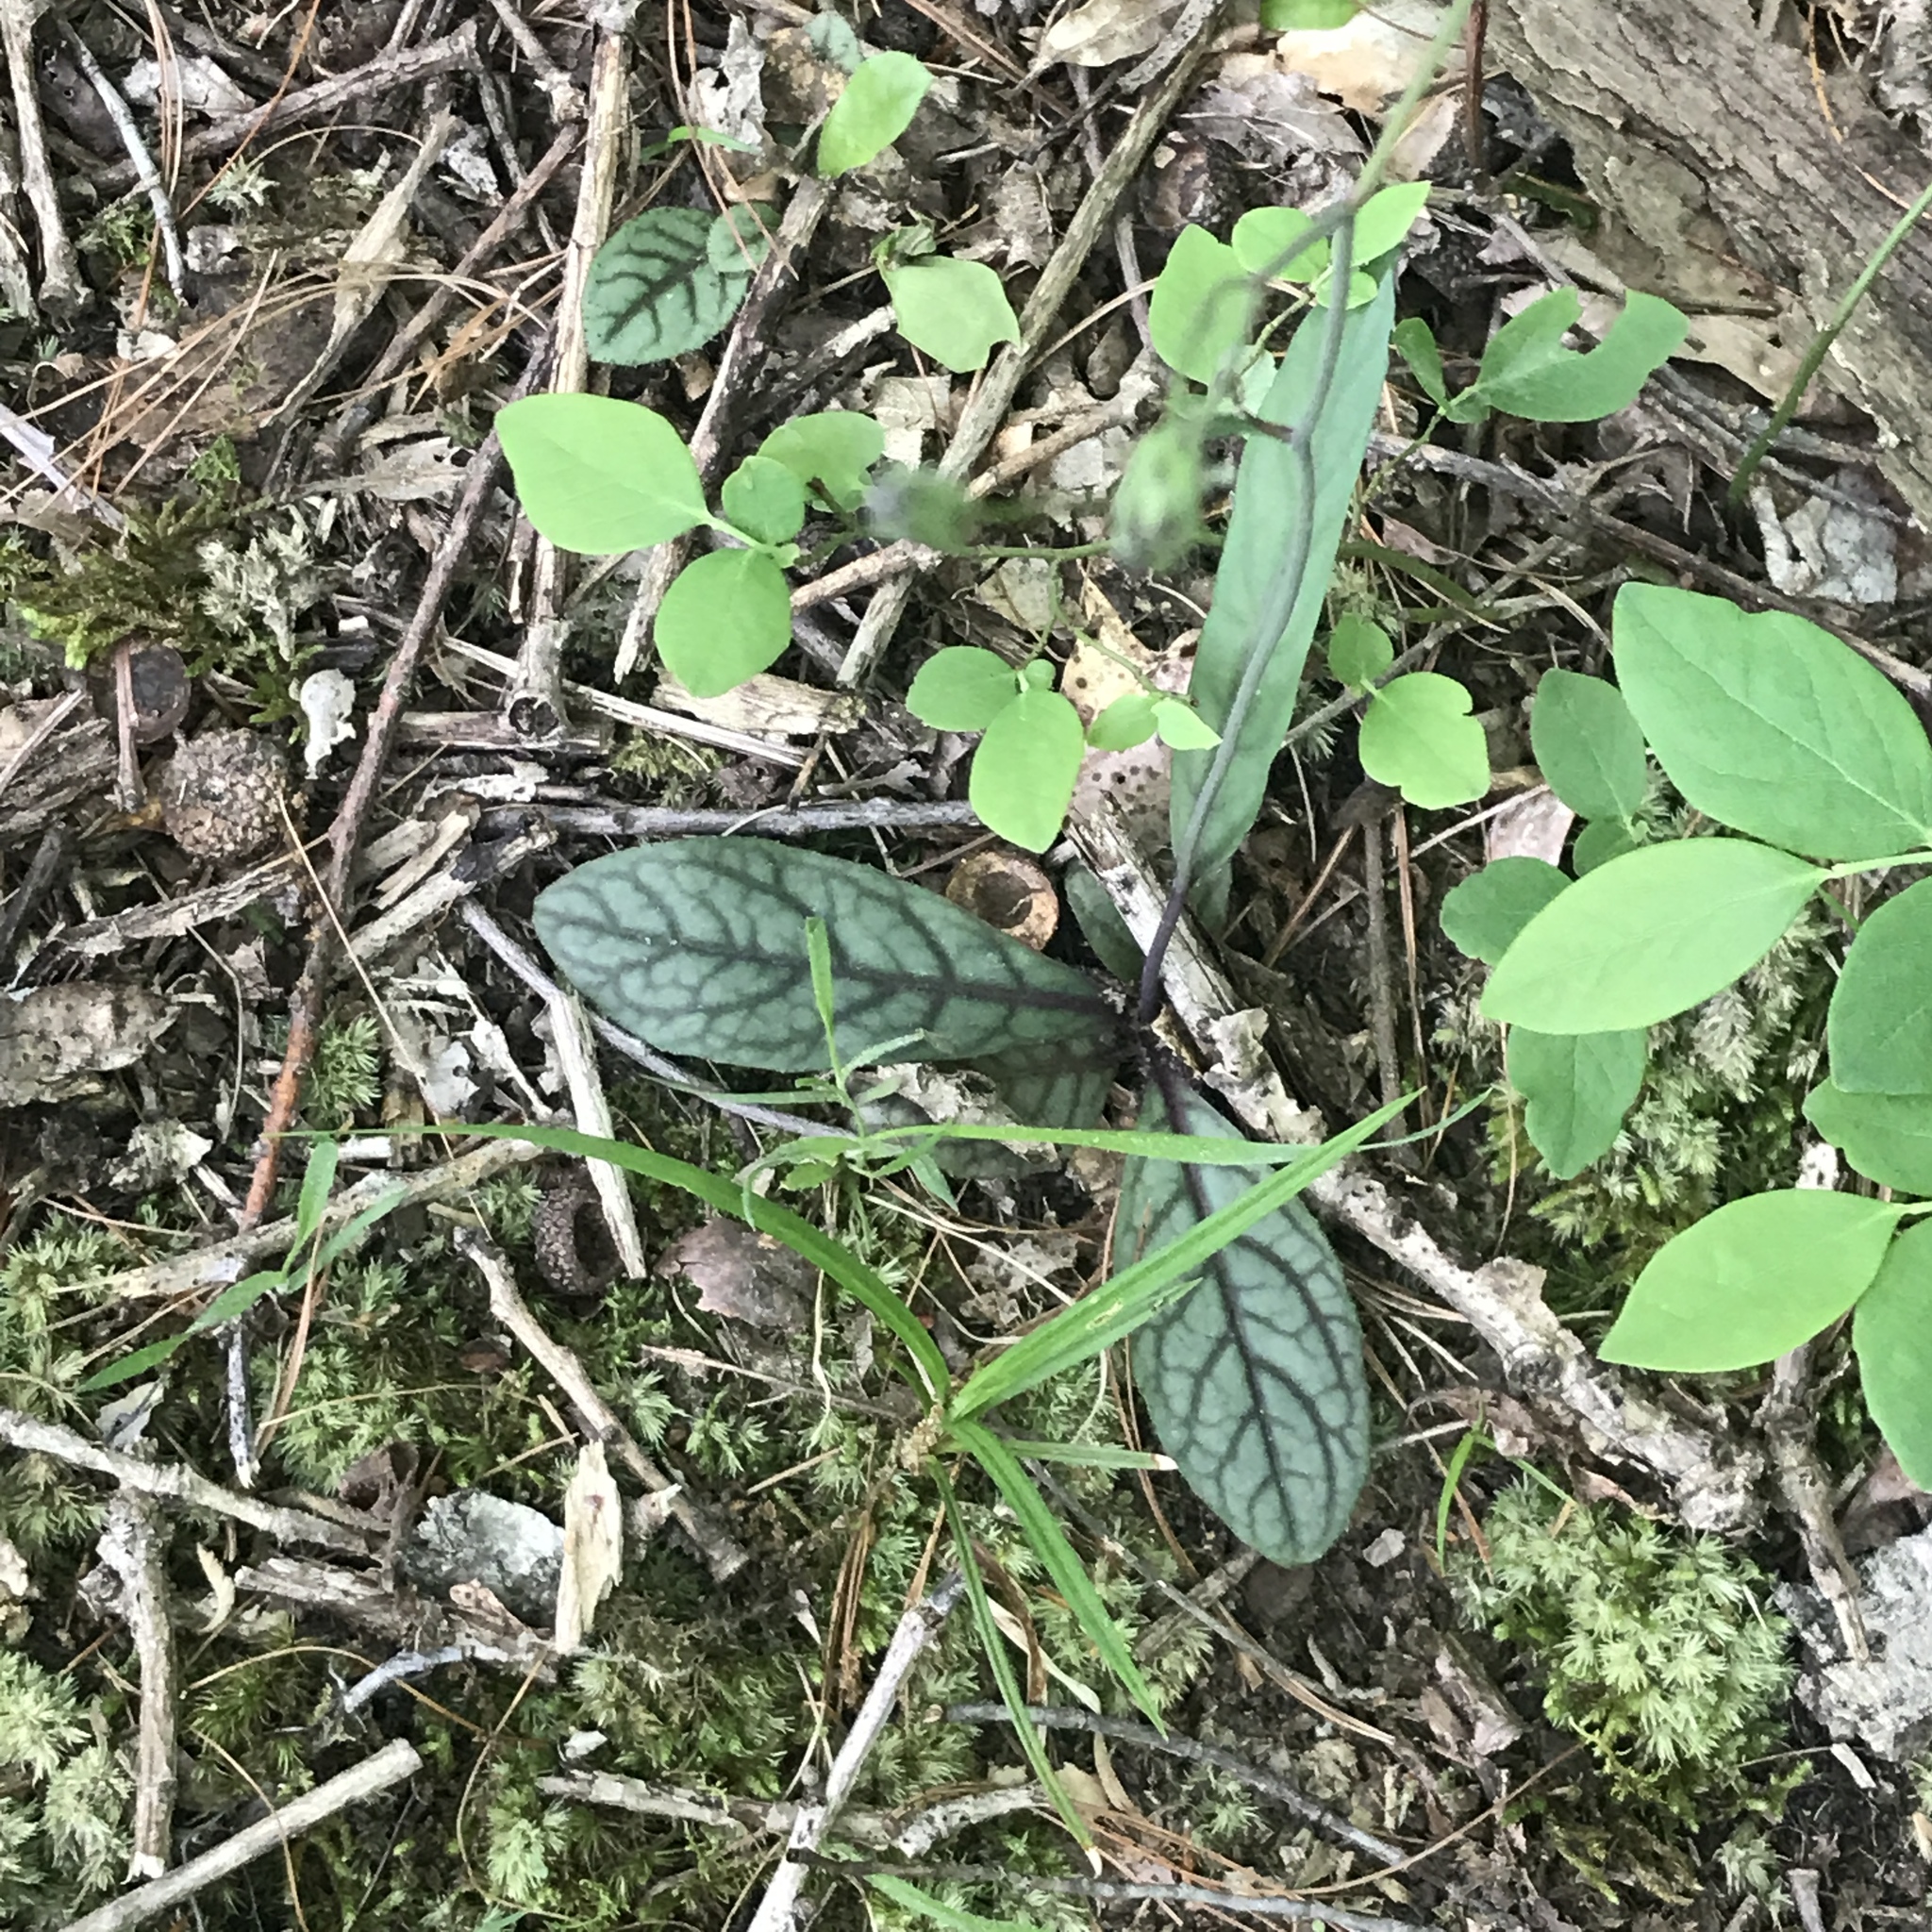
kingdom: Plantae
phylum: Tracheophyta
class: Magnoliopsida
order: Asterales
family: Asteraceae
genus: Hieracium
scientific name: Hieracium venosum
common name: Rattlesnake hawkweed
